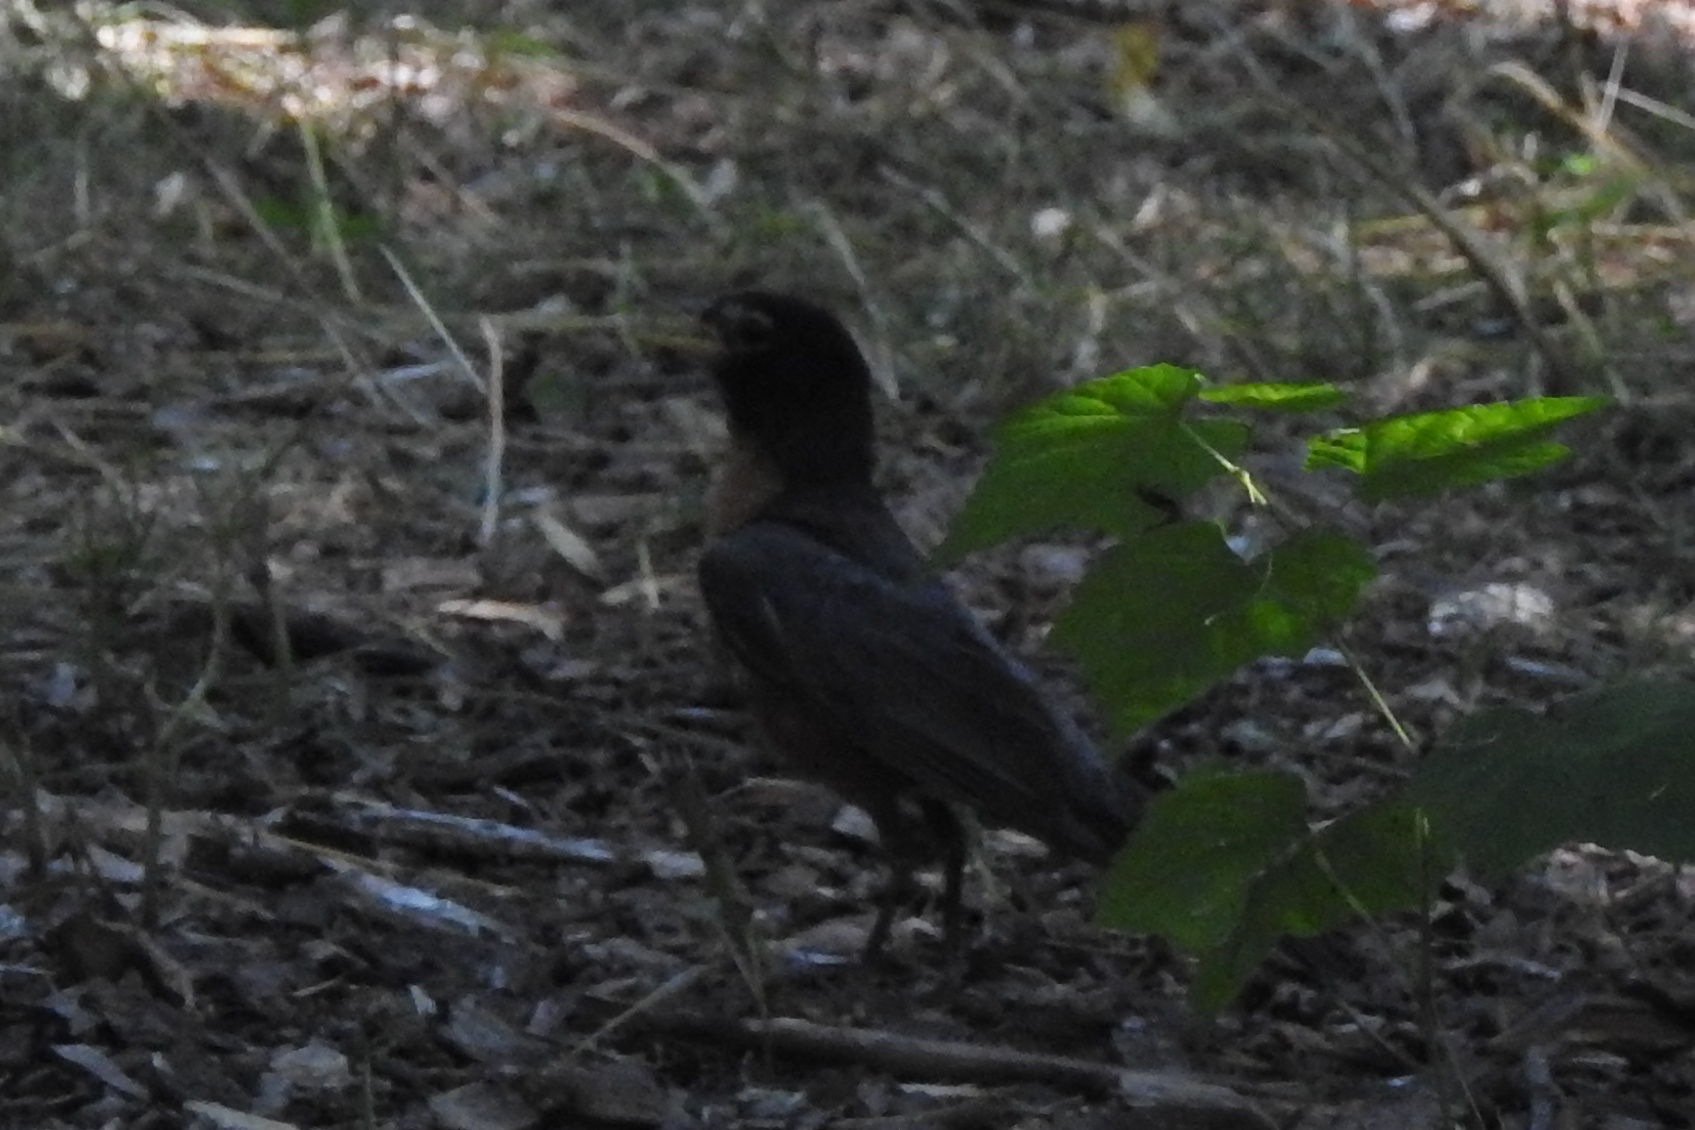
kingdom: Animalia
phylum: Chordata
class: Aves
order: Passeriformes
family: Turdidae
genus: Turdus
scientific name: Turdus migratorius
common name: American robin
